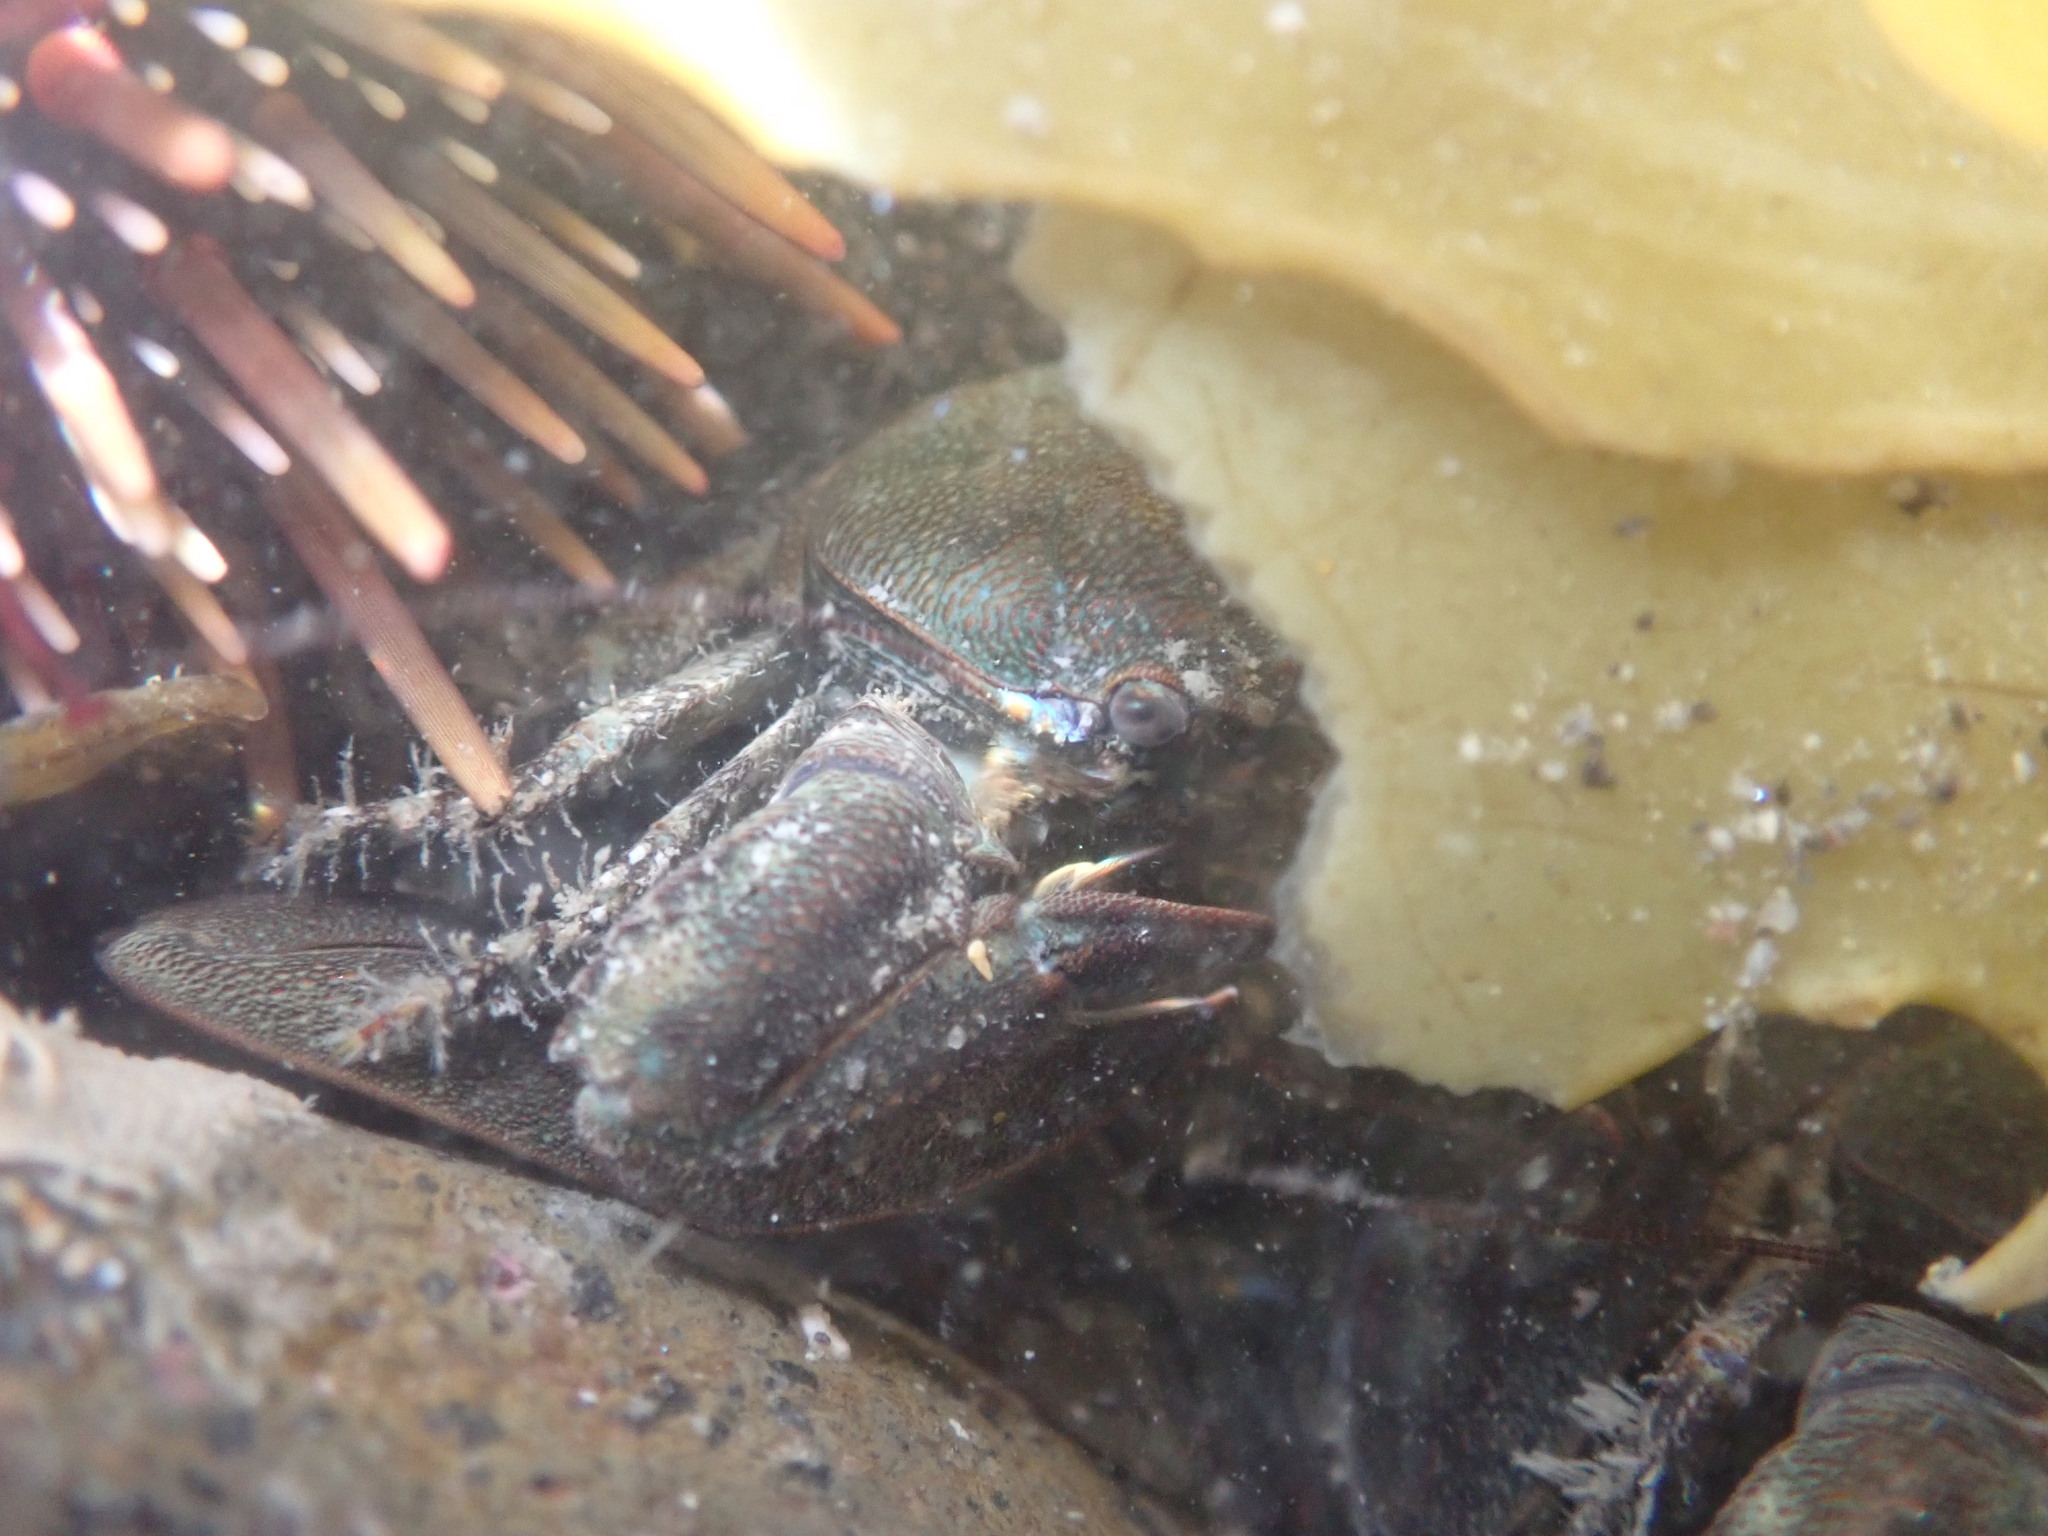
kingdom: Animalia
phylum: Arthropoda
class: Malacostraca
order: Decapoda
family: Porcellanidae
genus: Petrolisthes
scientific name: Petrolisthes elongatus
